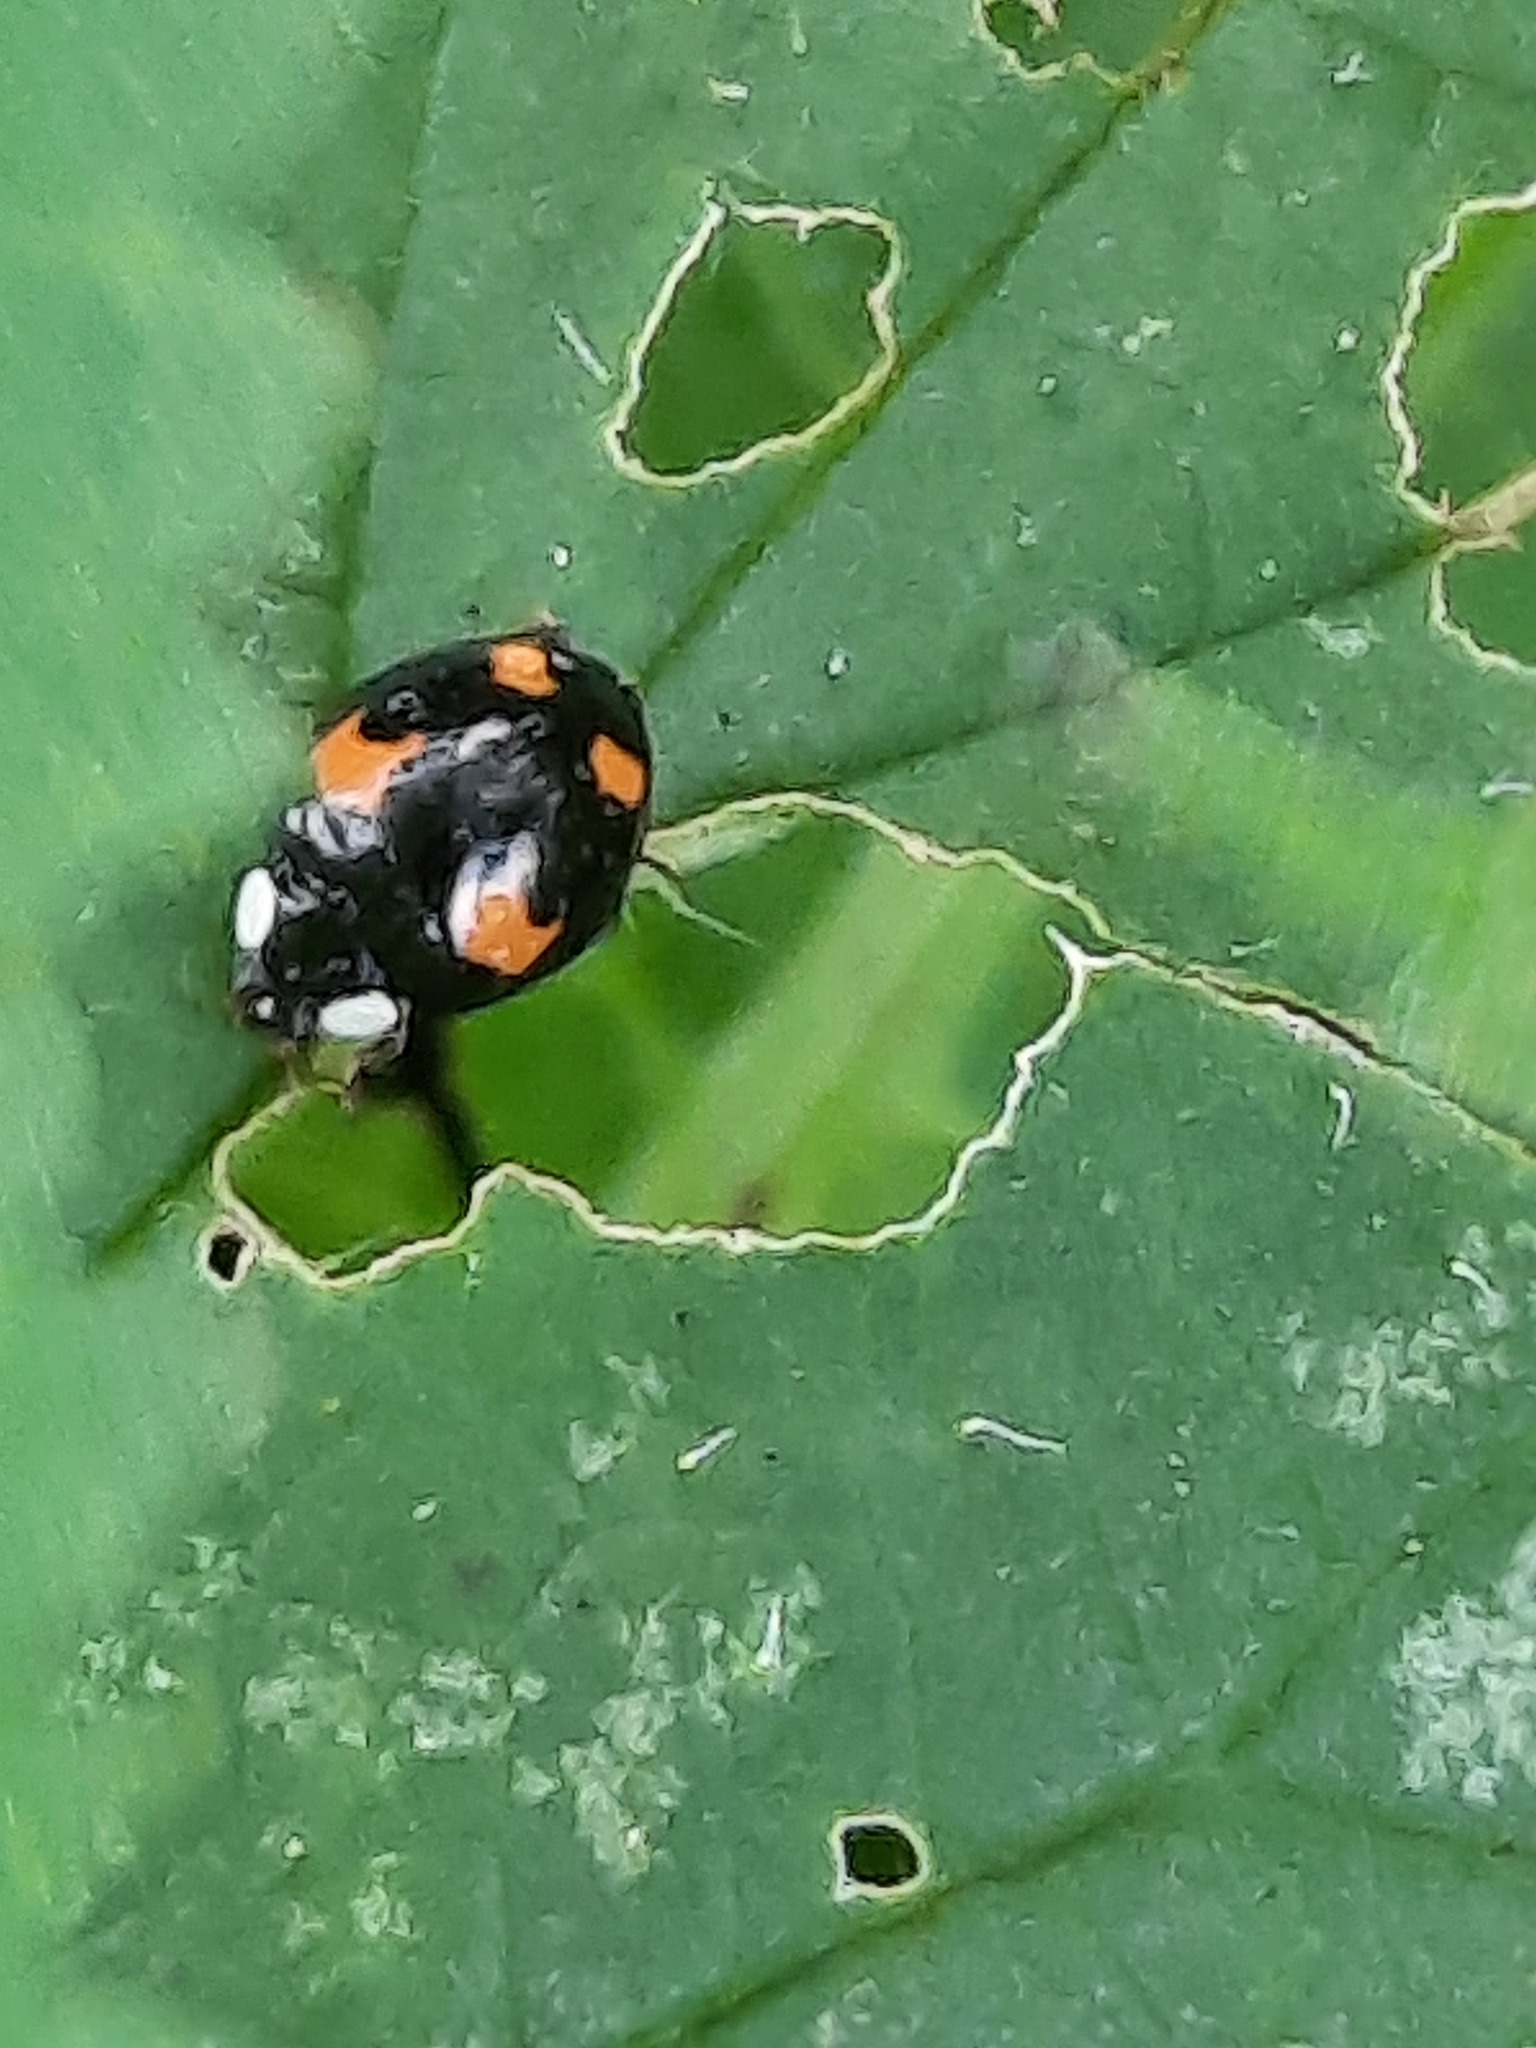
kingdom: Animalia
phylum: Arthropoda
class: Insecta
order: Coleoptera
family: Coccinellidae
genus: Harmonia
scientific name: Harmonia axyridis
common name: Harlequin ladybird
